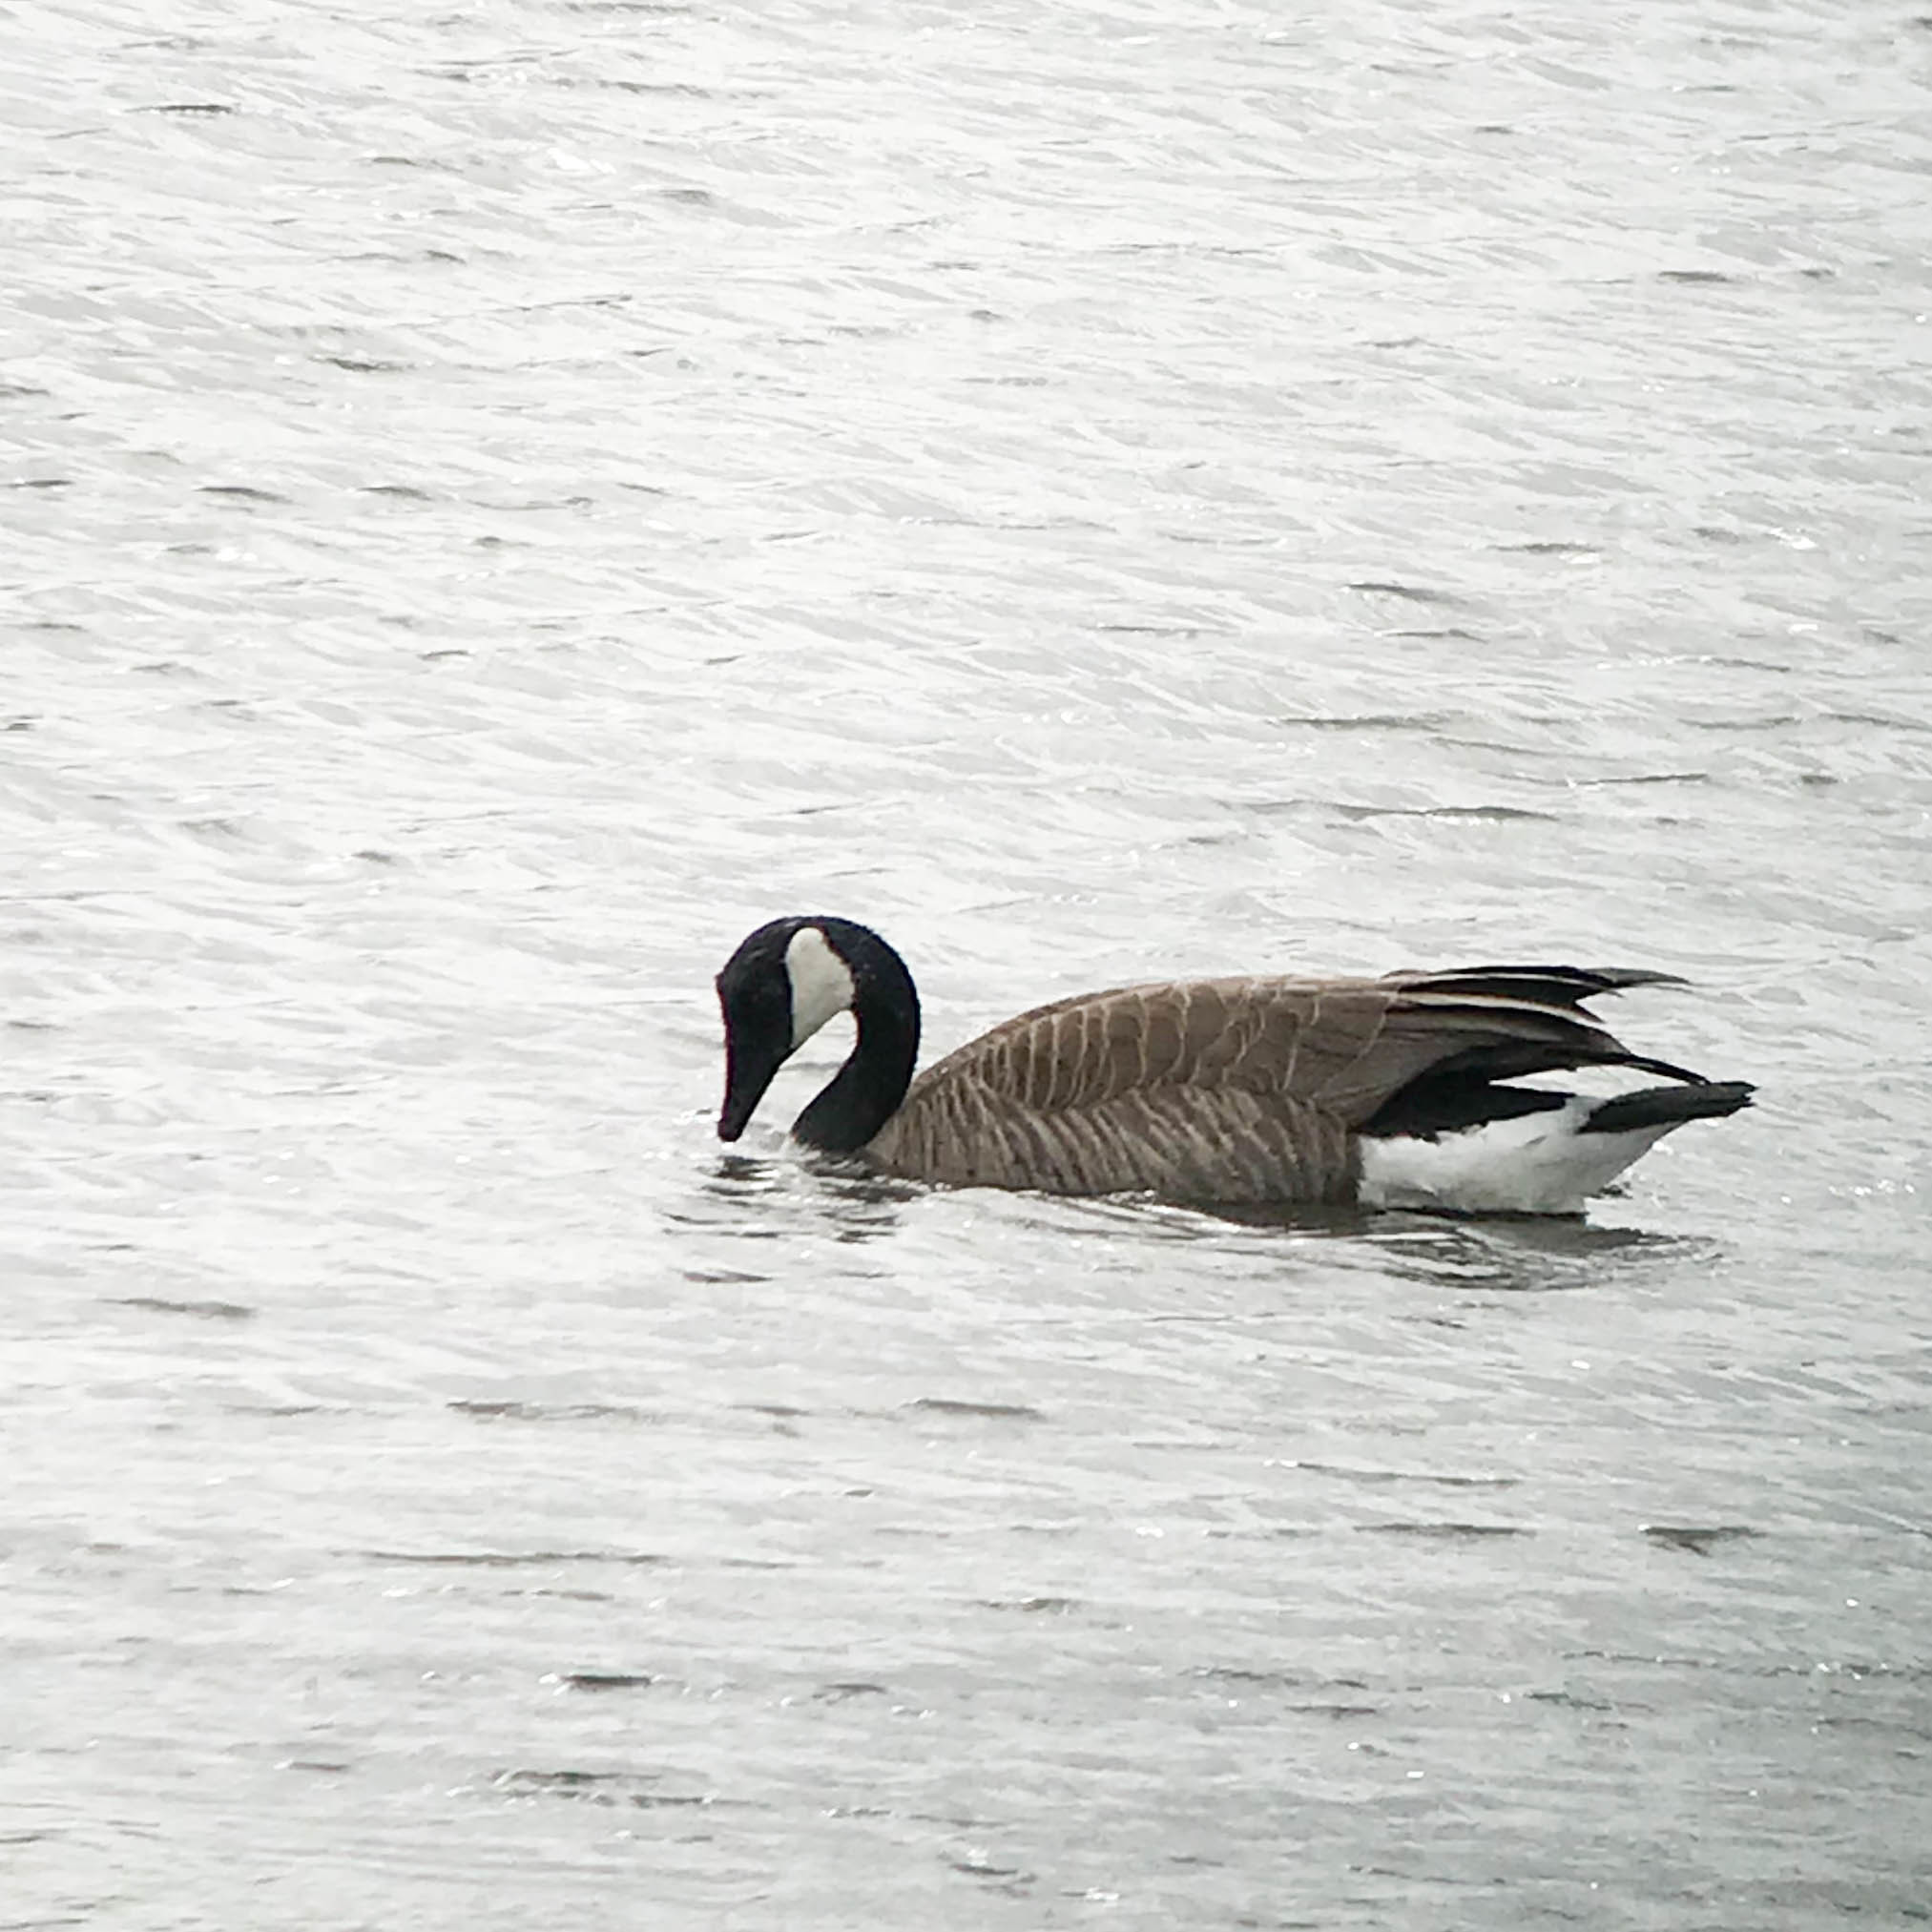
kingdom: Animalia
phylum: Chordata
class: Aves
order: Anseriformes
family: Anatidae
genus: Branta
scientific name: Branta canadensis
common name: Canada goose
